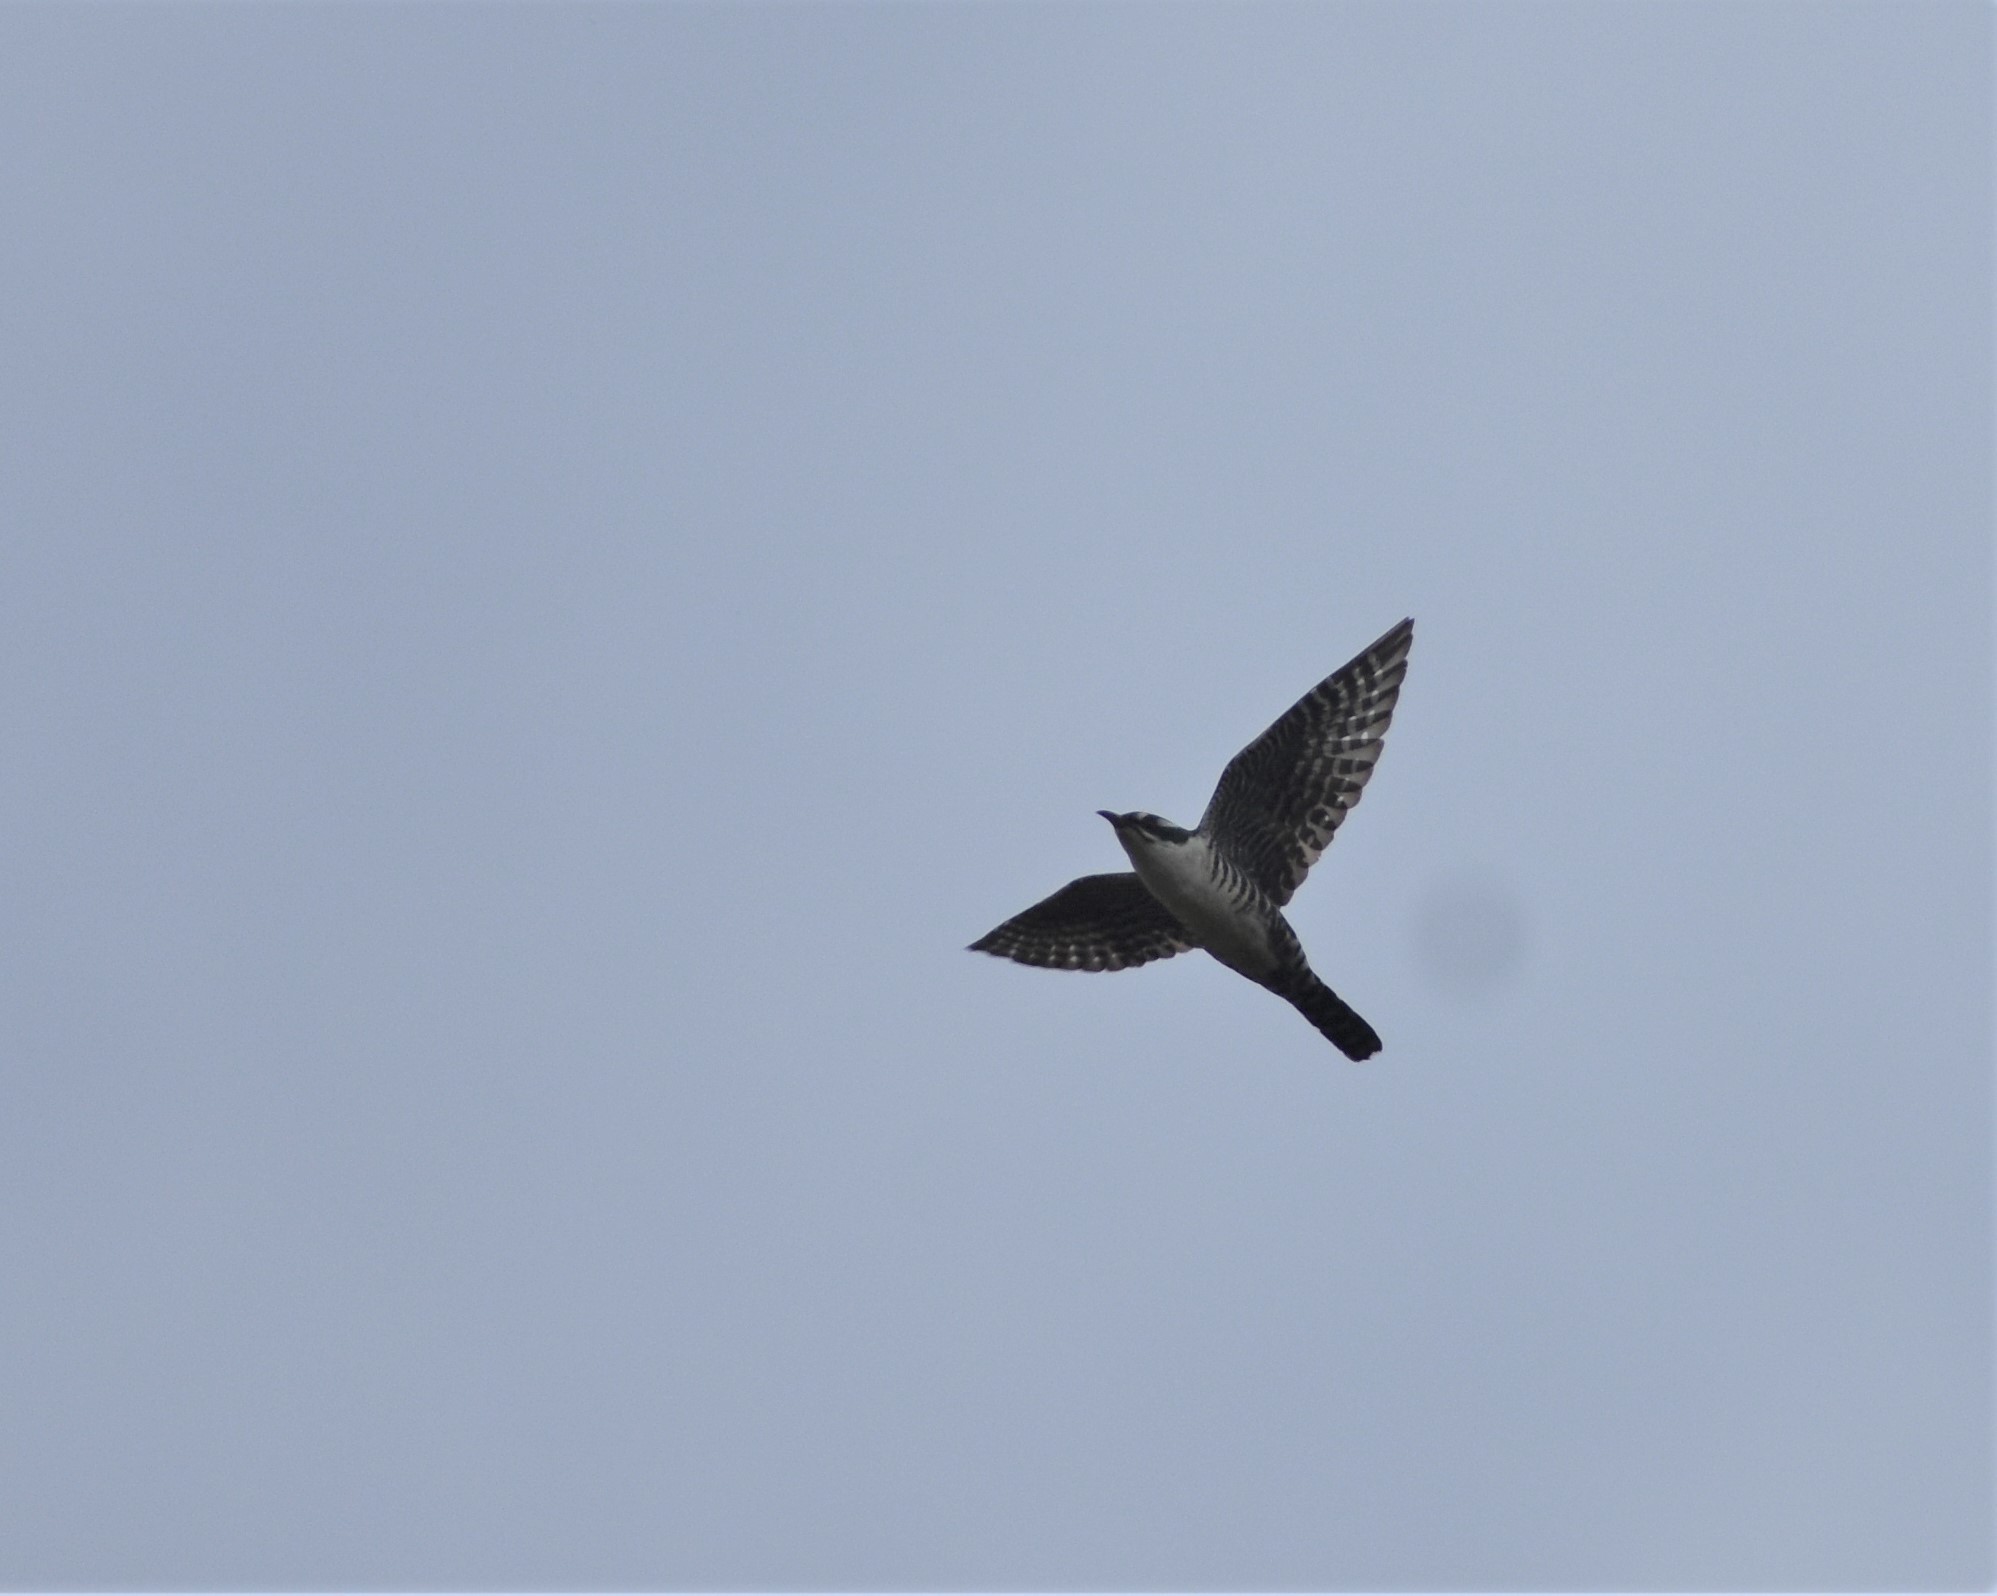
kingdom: Animalia
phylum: Chordata
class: Aves
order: Cuculiformes
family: Cuculidae
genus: Chrysococcyx
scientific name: Chrysococcyx caprius
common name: Diederik cuckoo
